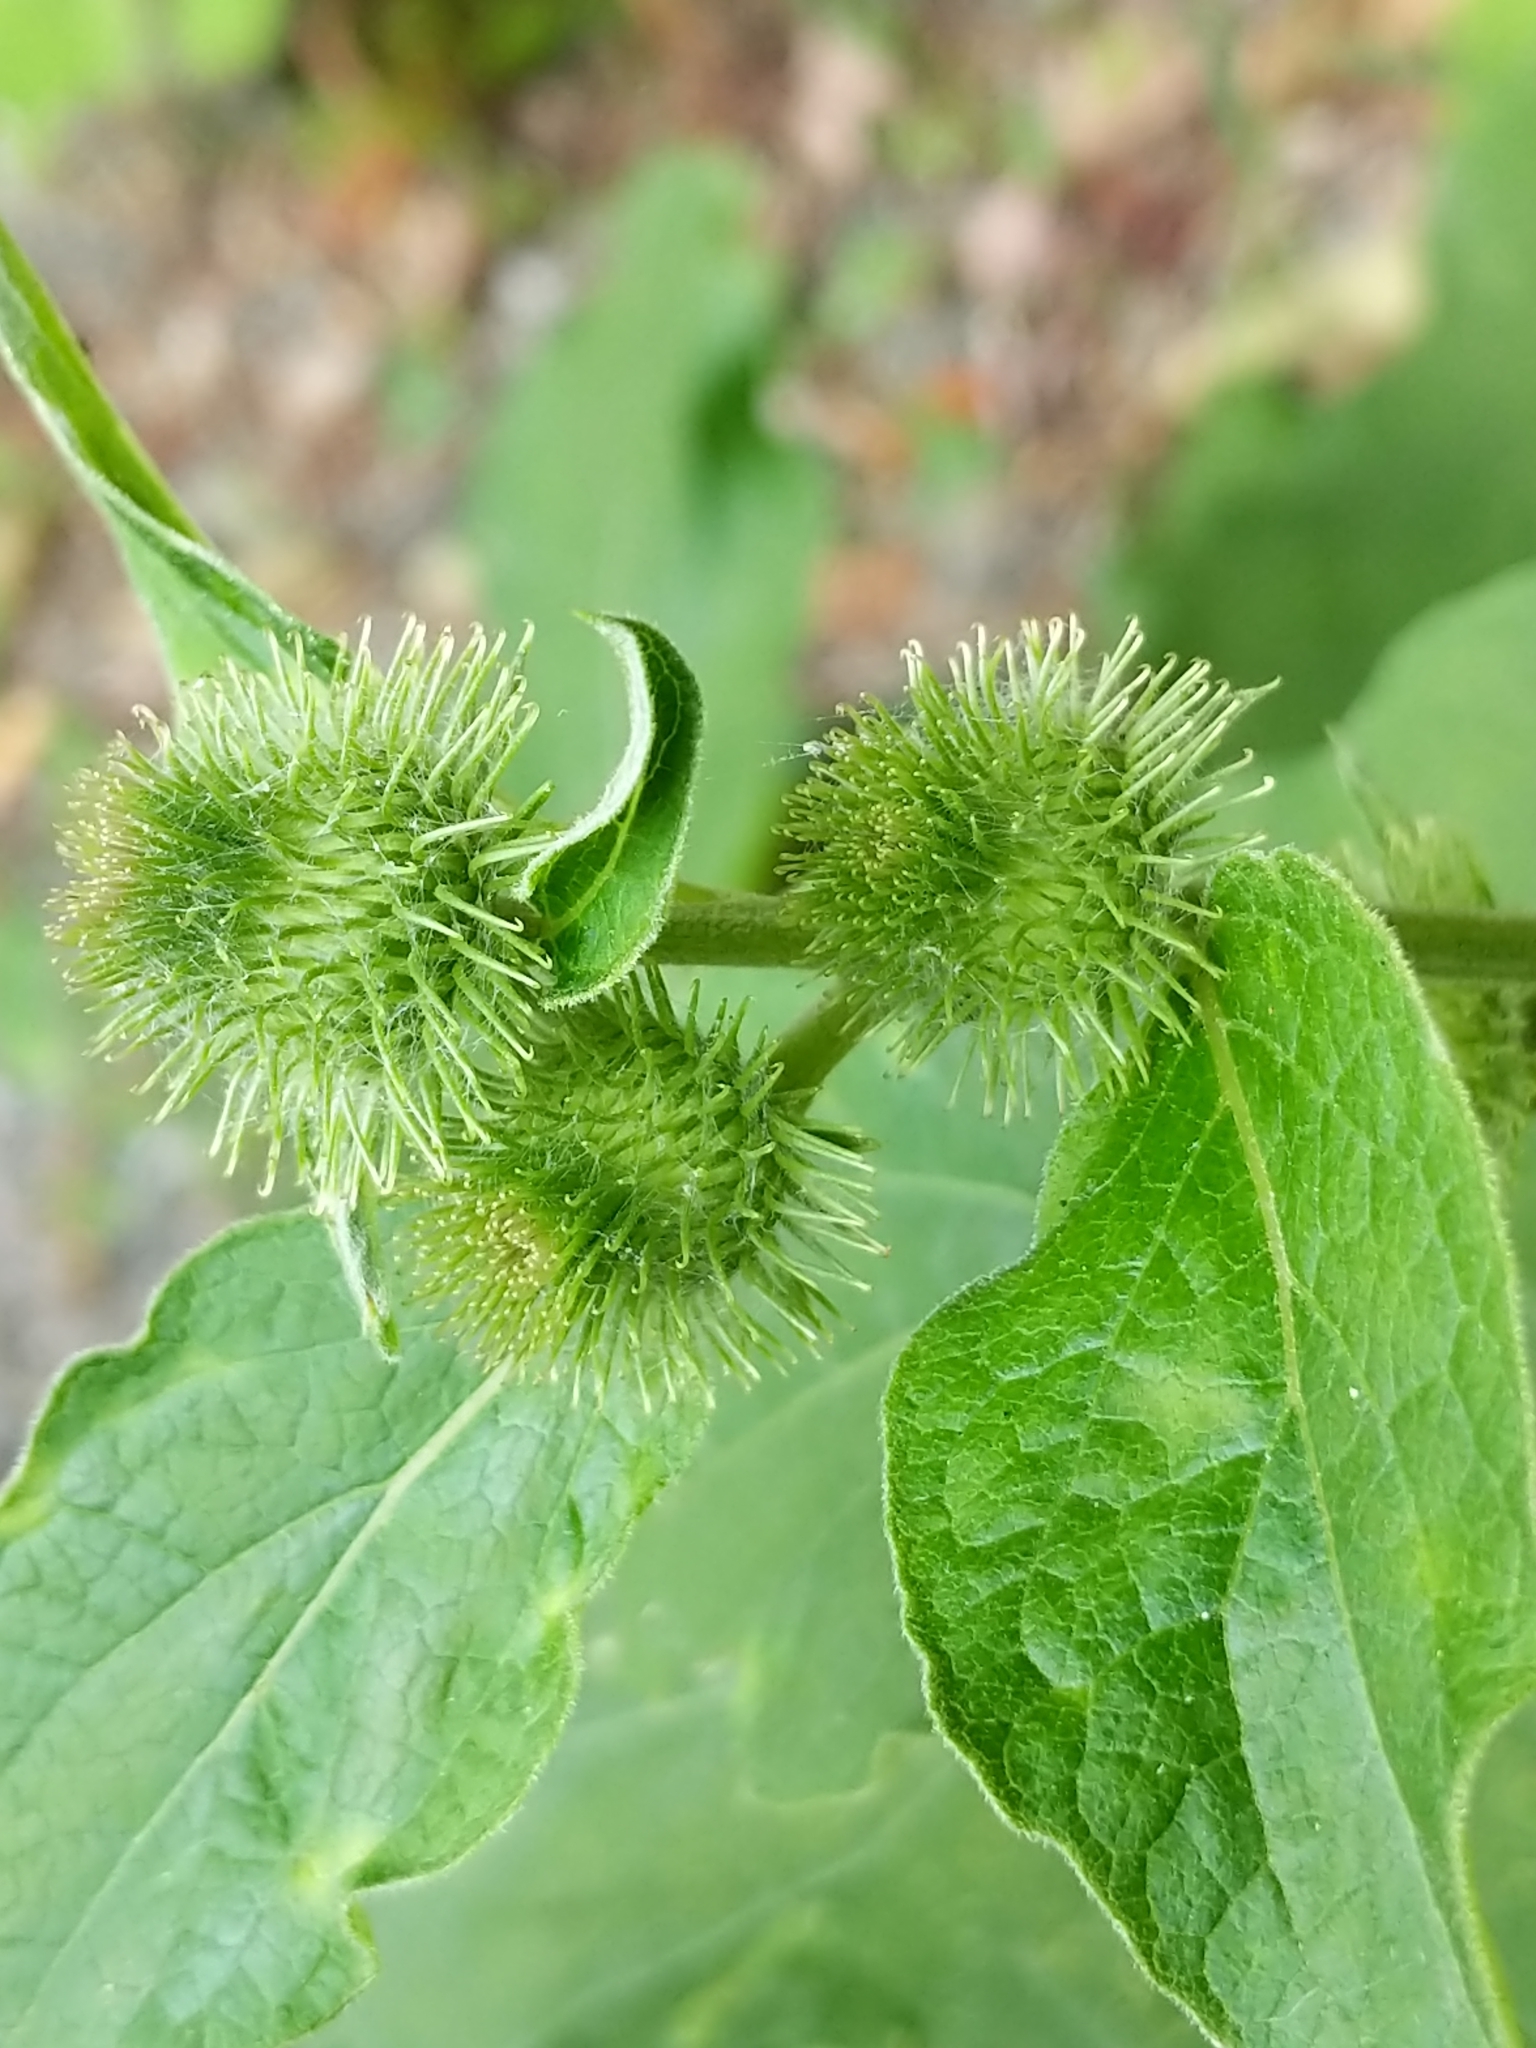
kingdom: Plantae
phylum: Tracheophyta
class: Magnoliopsida
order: Asterales
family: Asteraceae
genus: Arctium
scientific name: Arctium minus
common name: Lesser burdock
